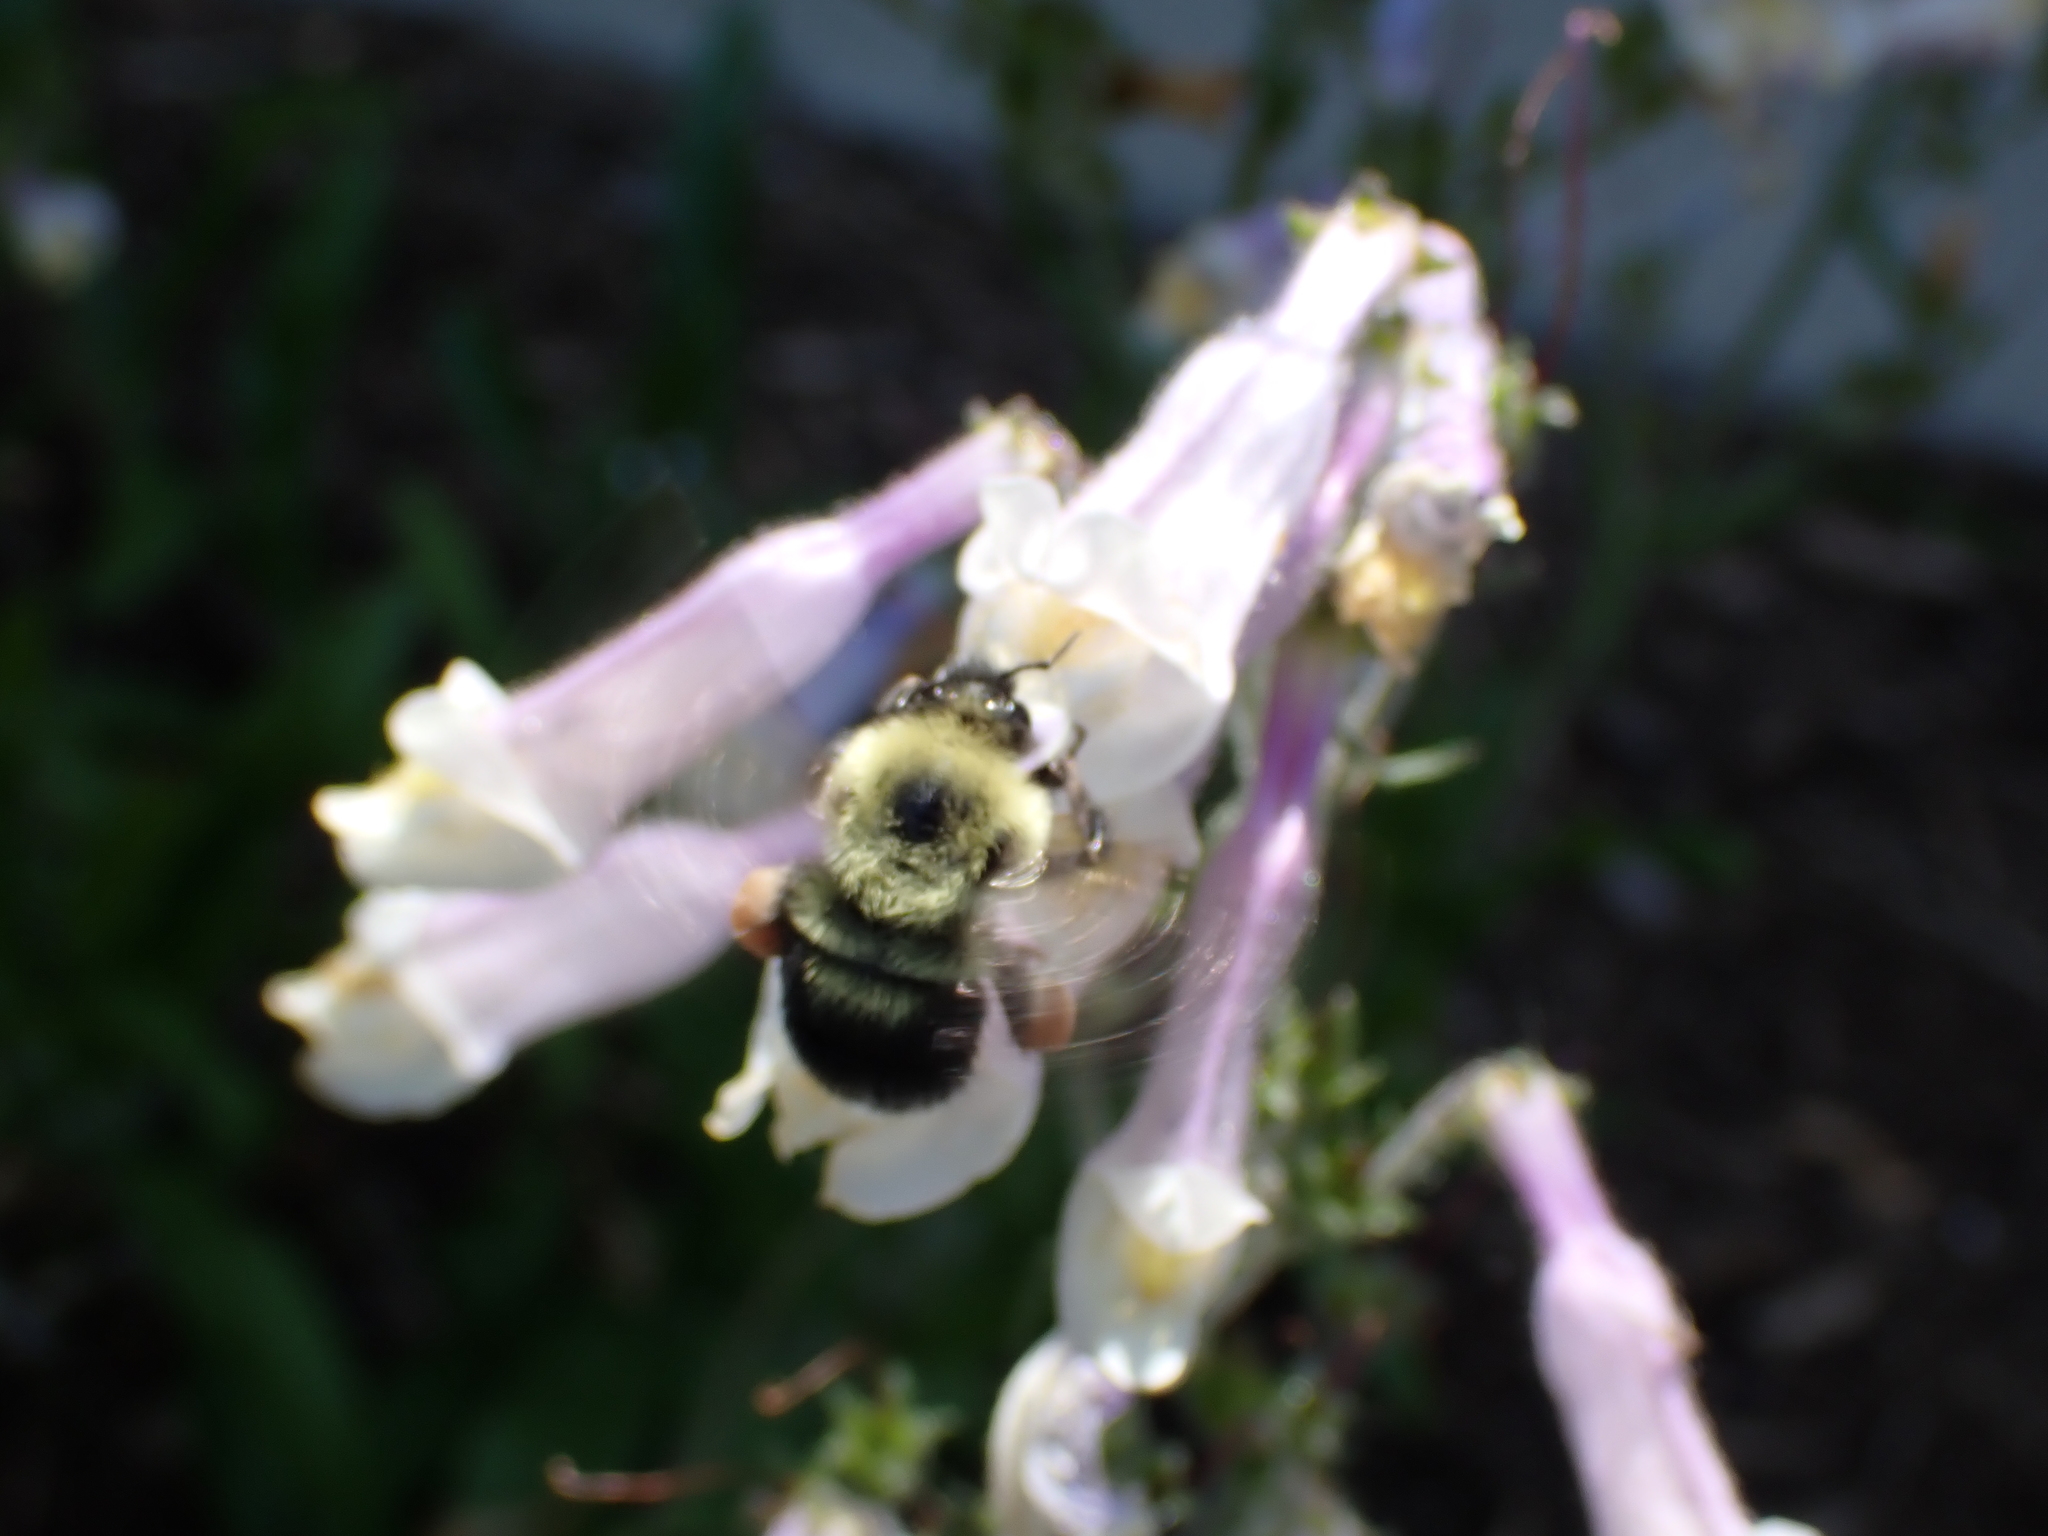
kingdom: Animalia
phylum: Arthropoda
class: Insecta
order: Hymenoptera
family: Apidae
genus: Bombus
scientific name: Bombus bimaculatus
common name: Two-spotted bumble bee
